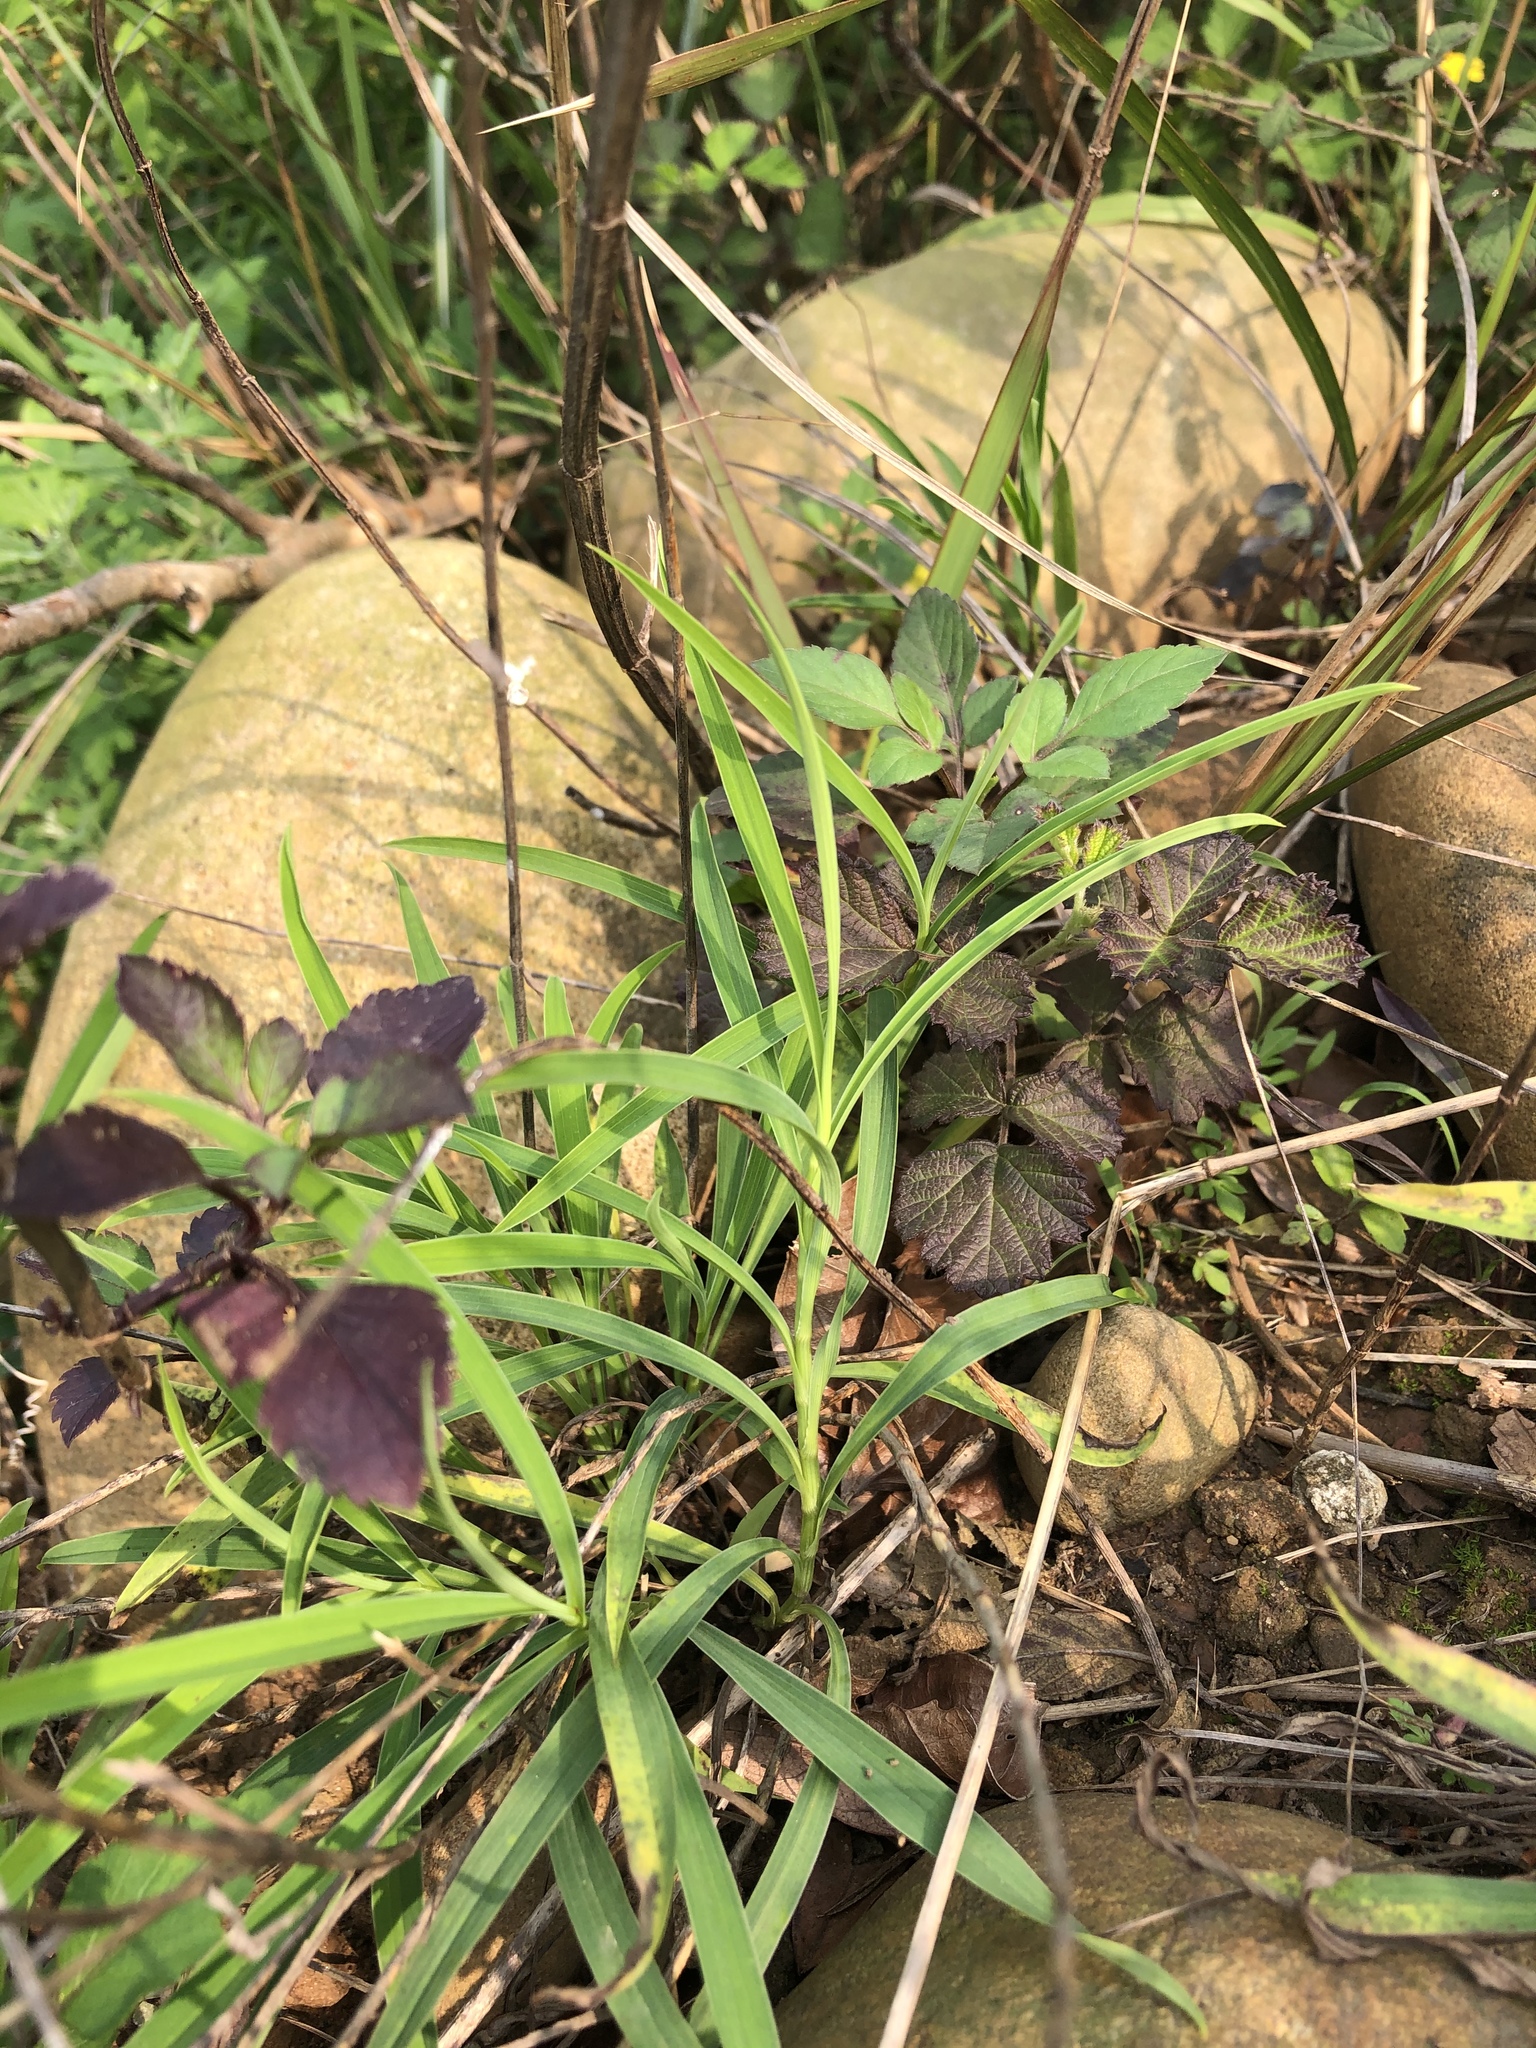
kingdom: Plantae
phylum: Tracheophyta
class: Magnoliopsida
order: Apiales
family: Apiaceae
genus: Bupleurum
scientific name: Bupleurum kaoi
